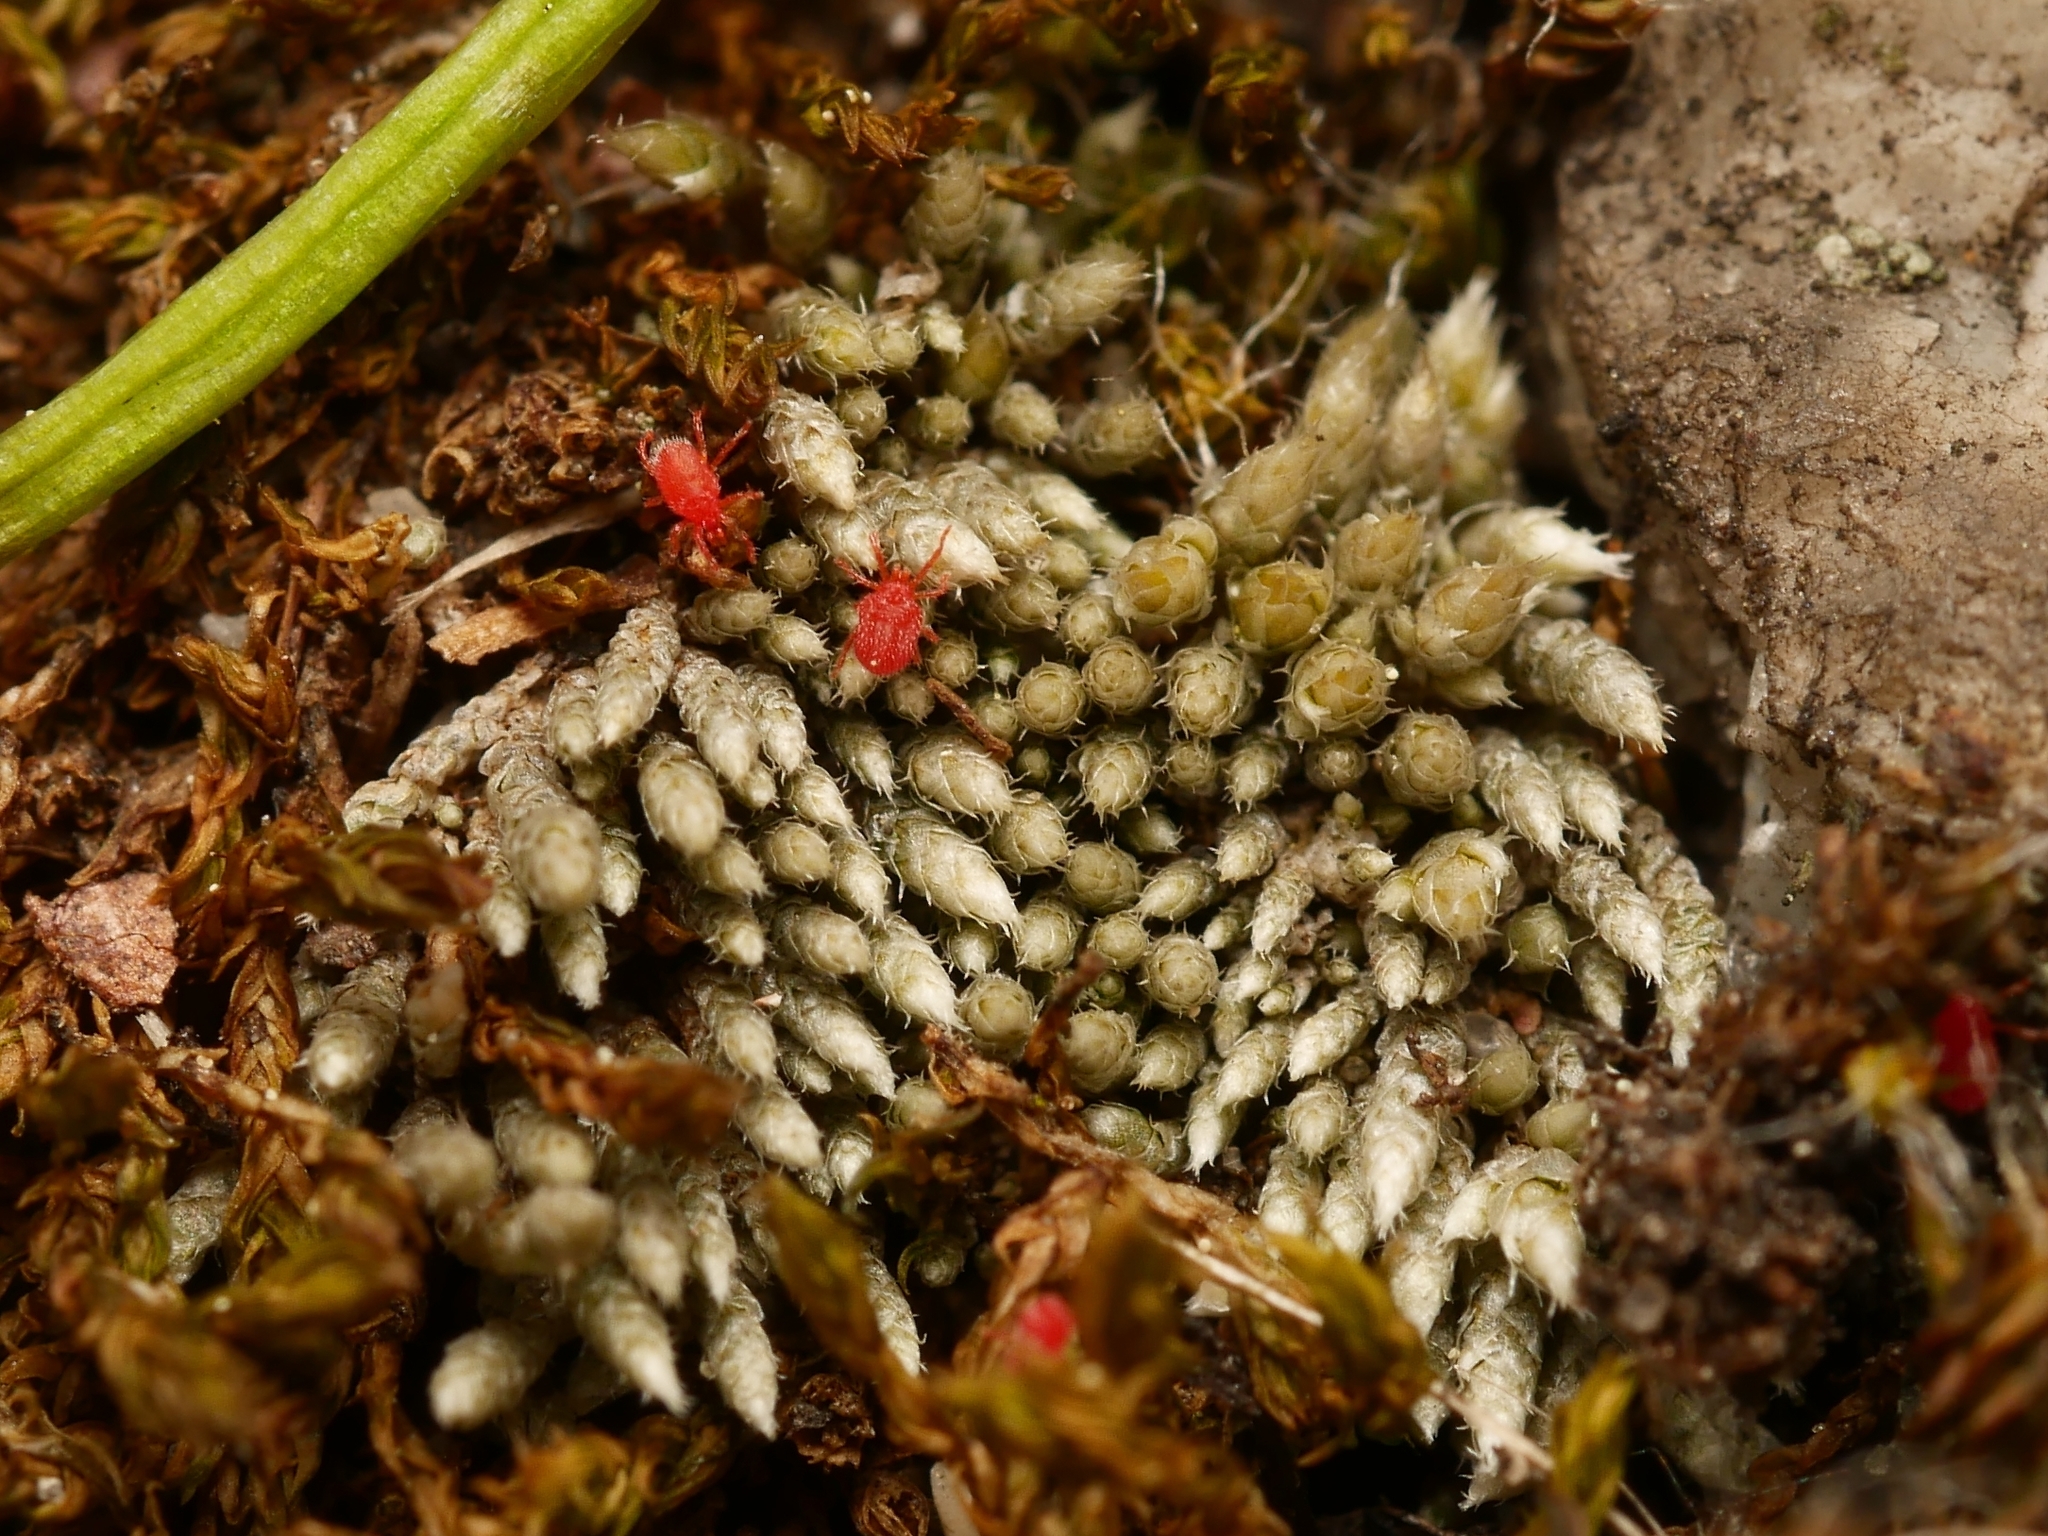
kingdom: Plantae
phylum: Bryophyta
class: Bryopsida
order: Bryales
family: Bryaceae
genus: Bryum
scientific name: Bryum argenteum
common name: Silver-moss
